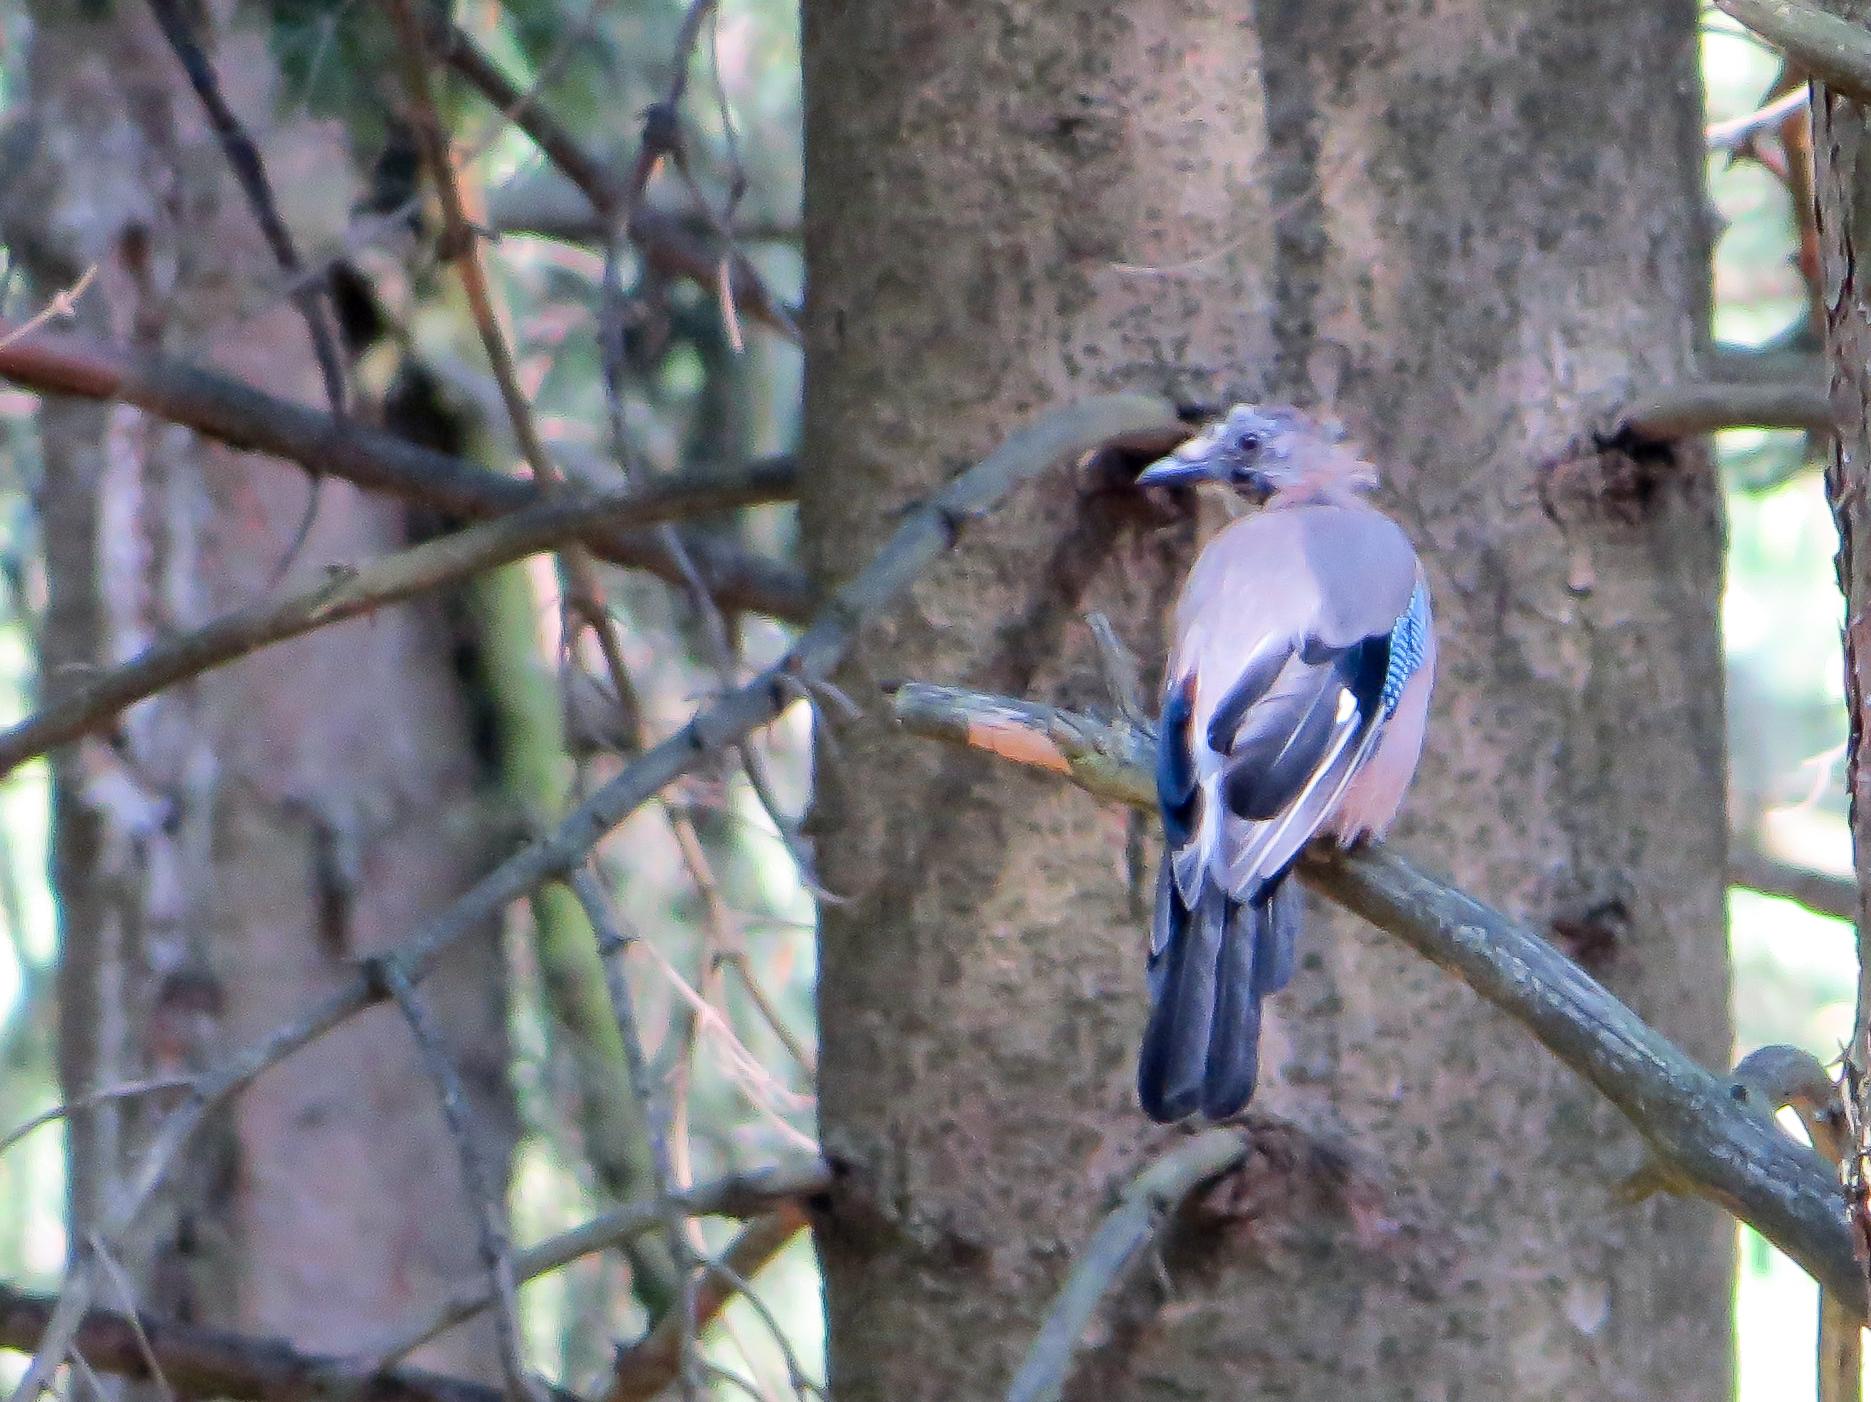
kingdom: Animalia
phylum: Chordata
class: Aves
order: Passeriformes
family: Corvidae
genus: Garrulus
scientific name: Garrulus glandarius
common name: Eurasian jay
